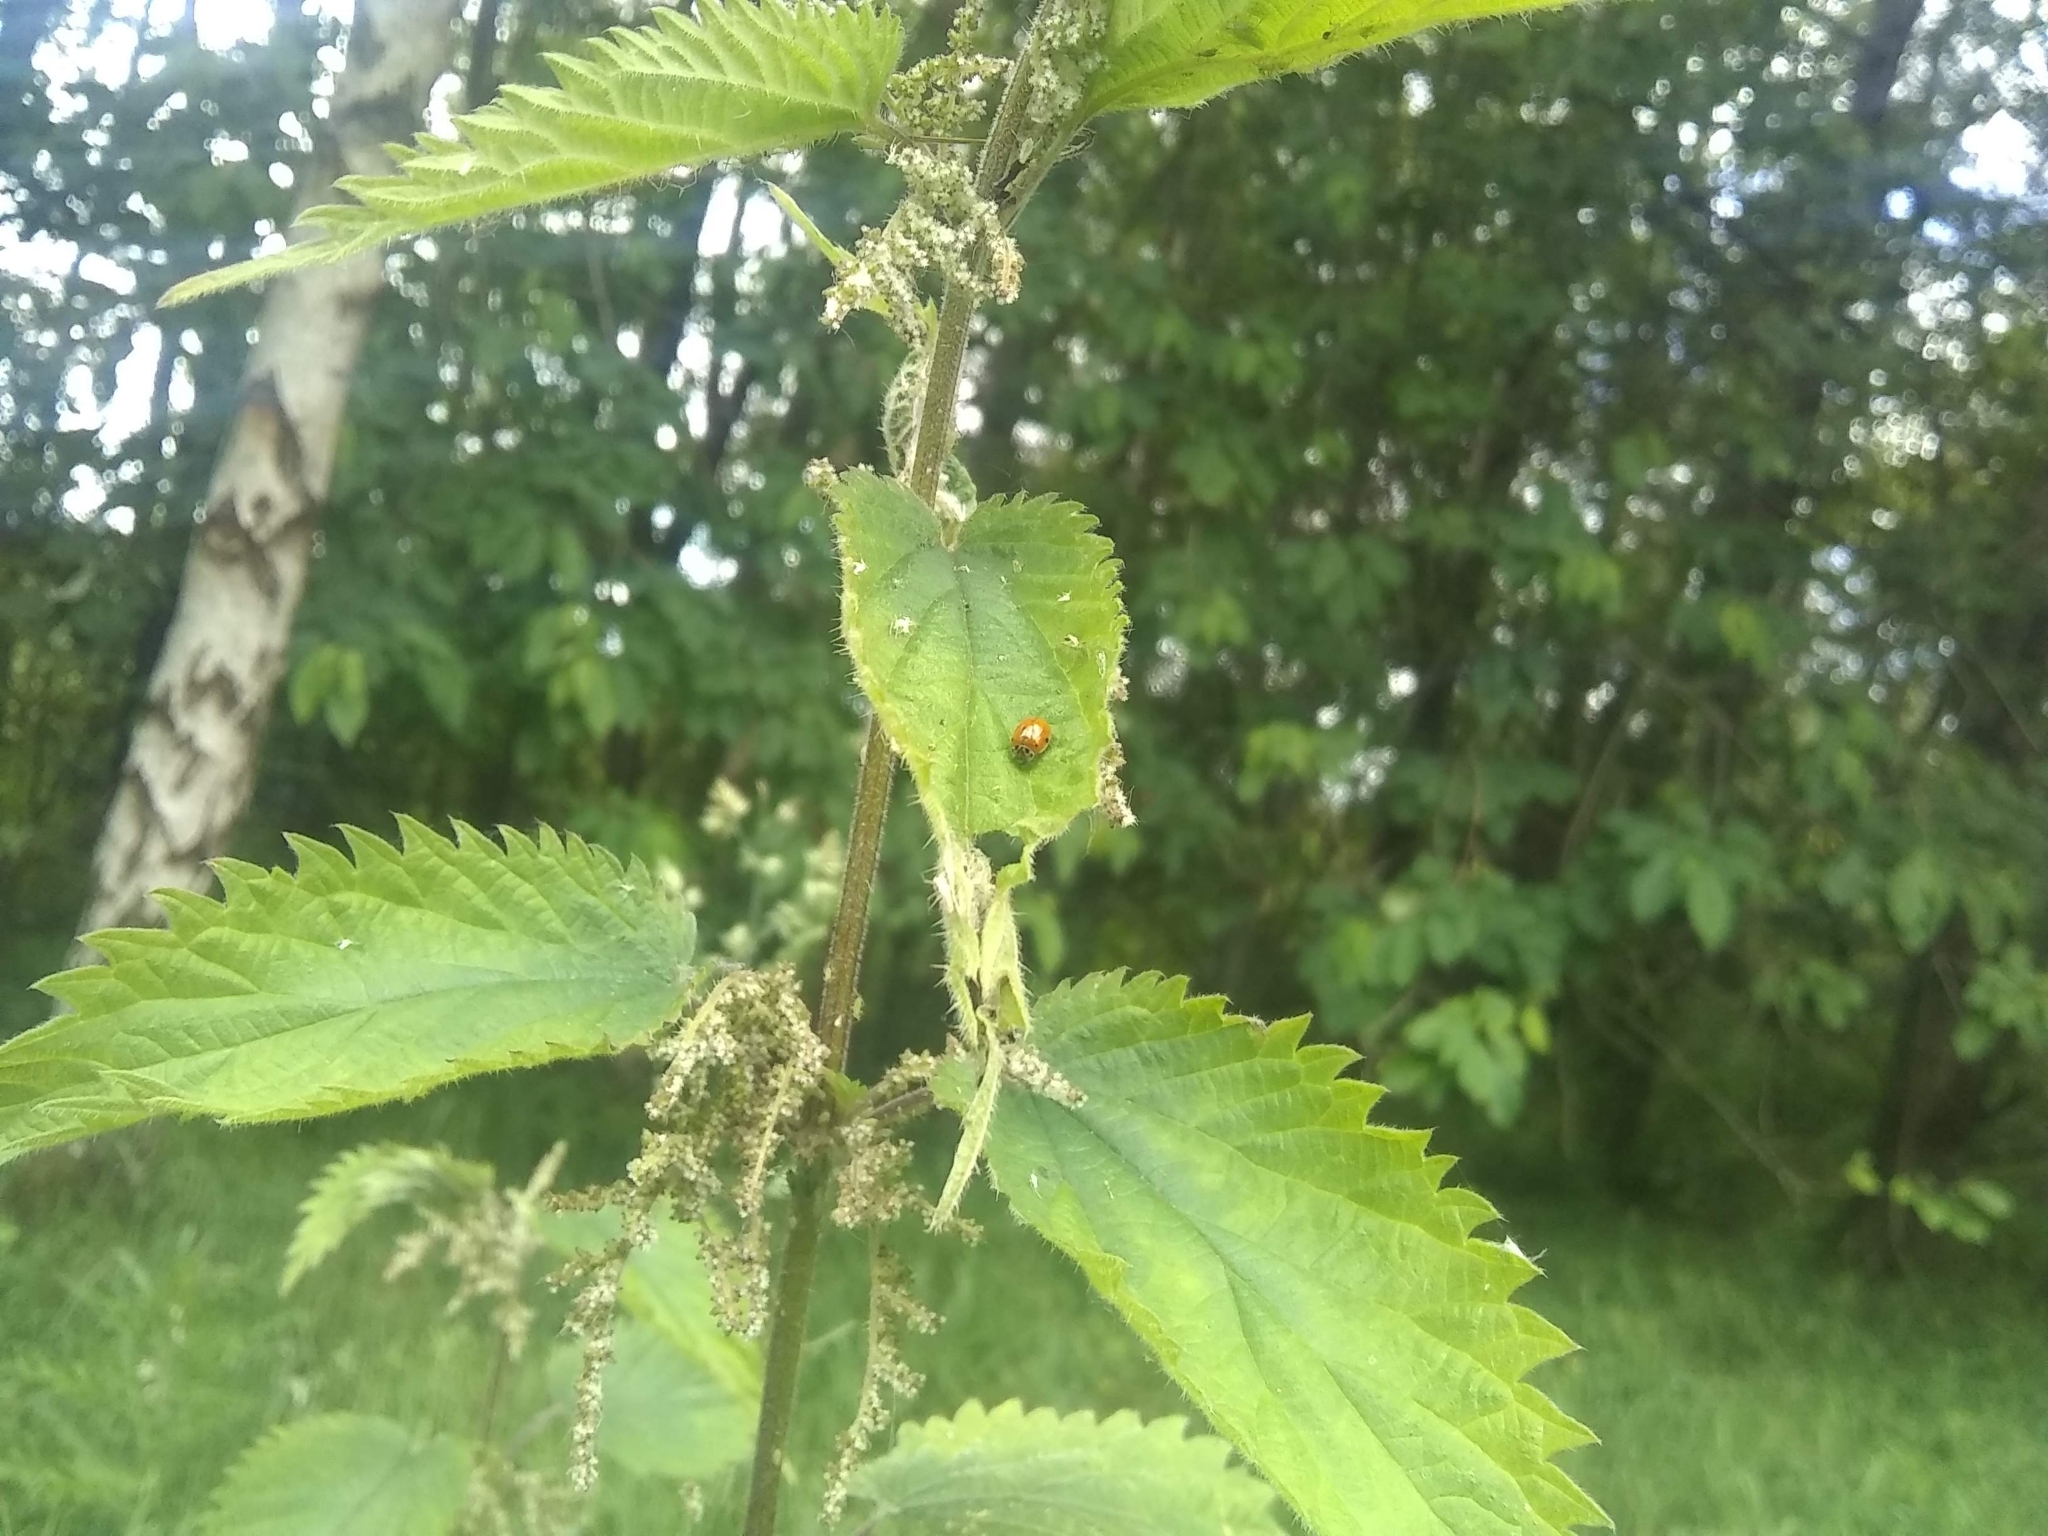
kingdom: Animalia
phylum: Arthropoda
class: Insecta
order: Coleoptera
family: Coccinellidae
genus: Adalia
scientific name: Adalia decempunctata
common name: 10-spot ladybird
